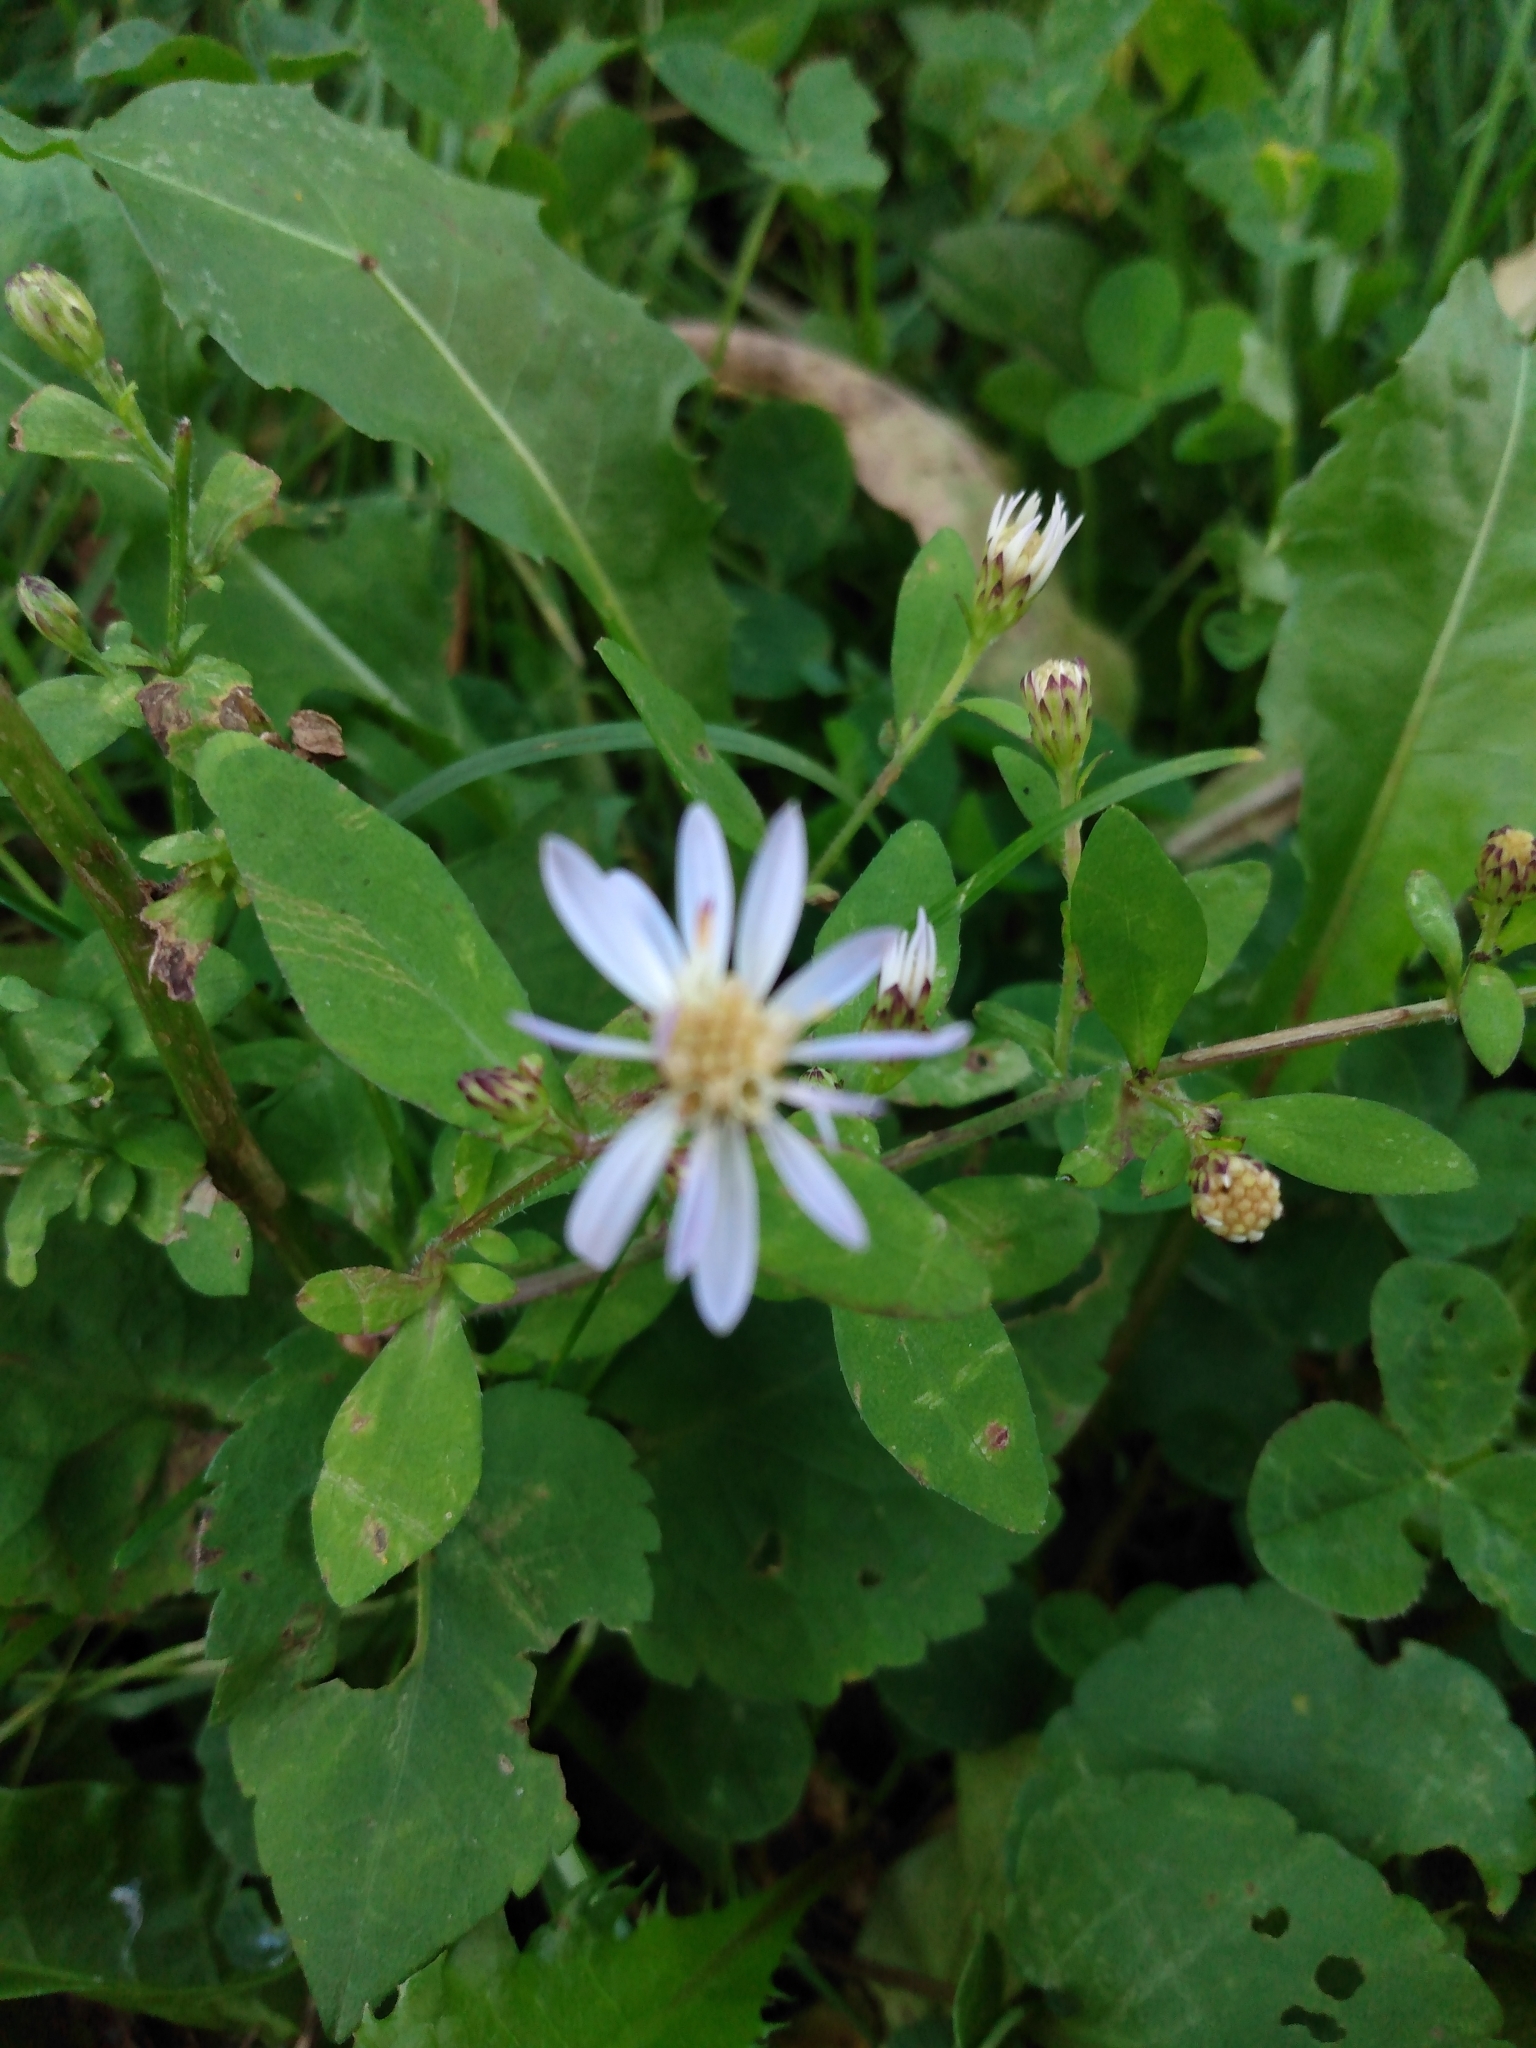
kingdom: Plantae
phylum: Tracheophyta
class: Magnoliopsida
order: Asterales
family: Asteraceae
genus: Symphyotrichum
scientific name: Symphyotrichum cordifolium
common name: Beeweed
